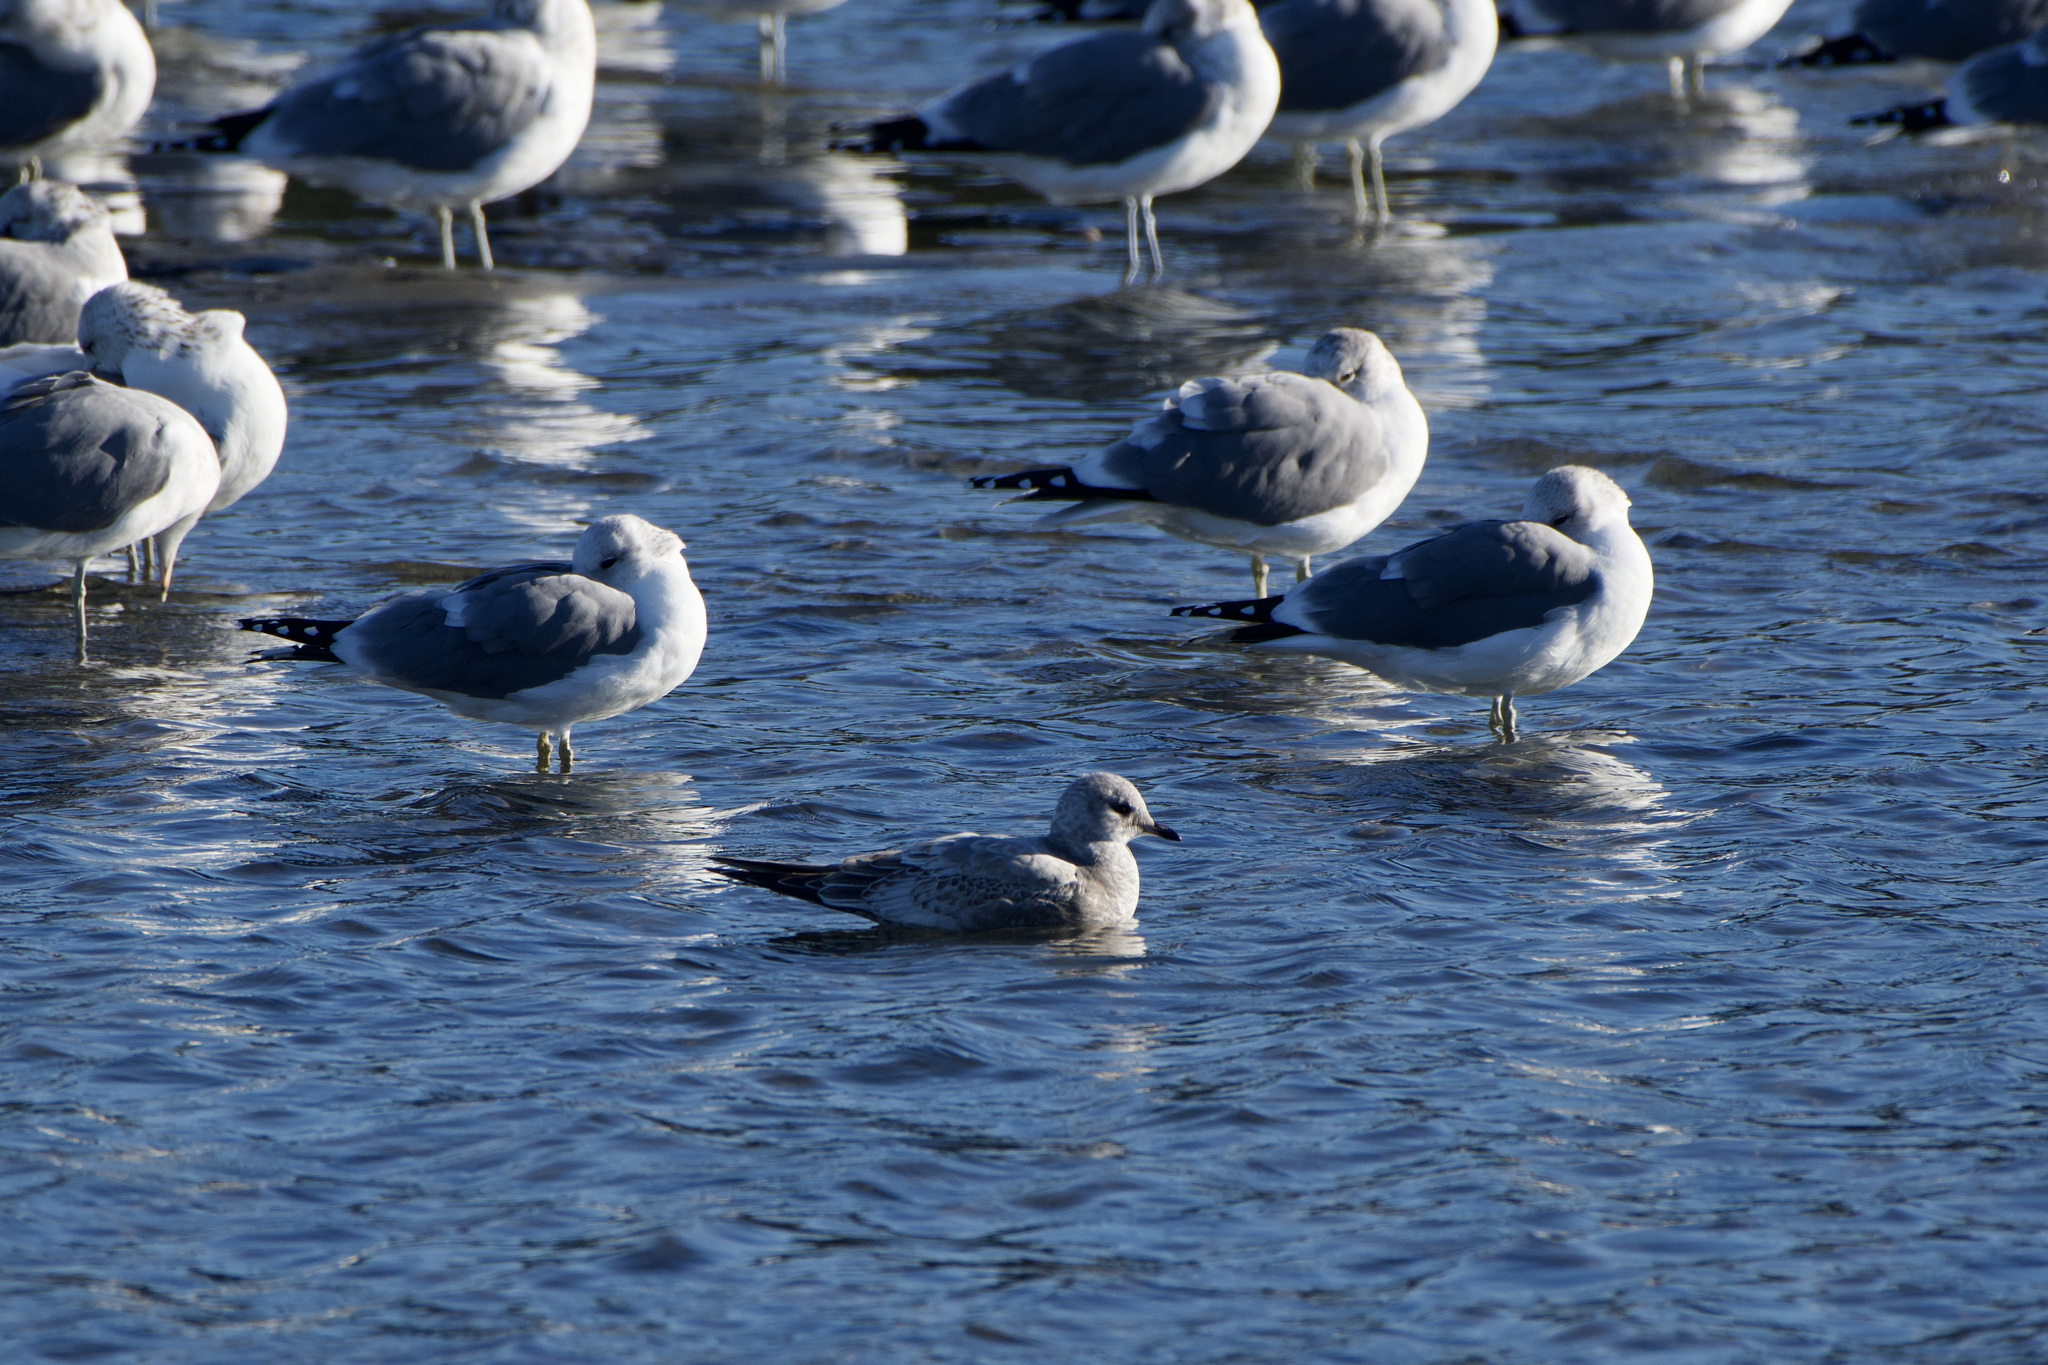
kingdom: Animalia
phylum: Chordata
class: Aves
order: Charadriiformes
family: Laridae
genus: Larus
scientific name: Larus brachyrhynchus
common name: Short-billed gull
